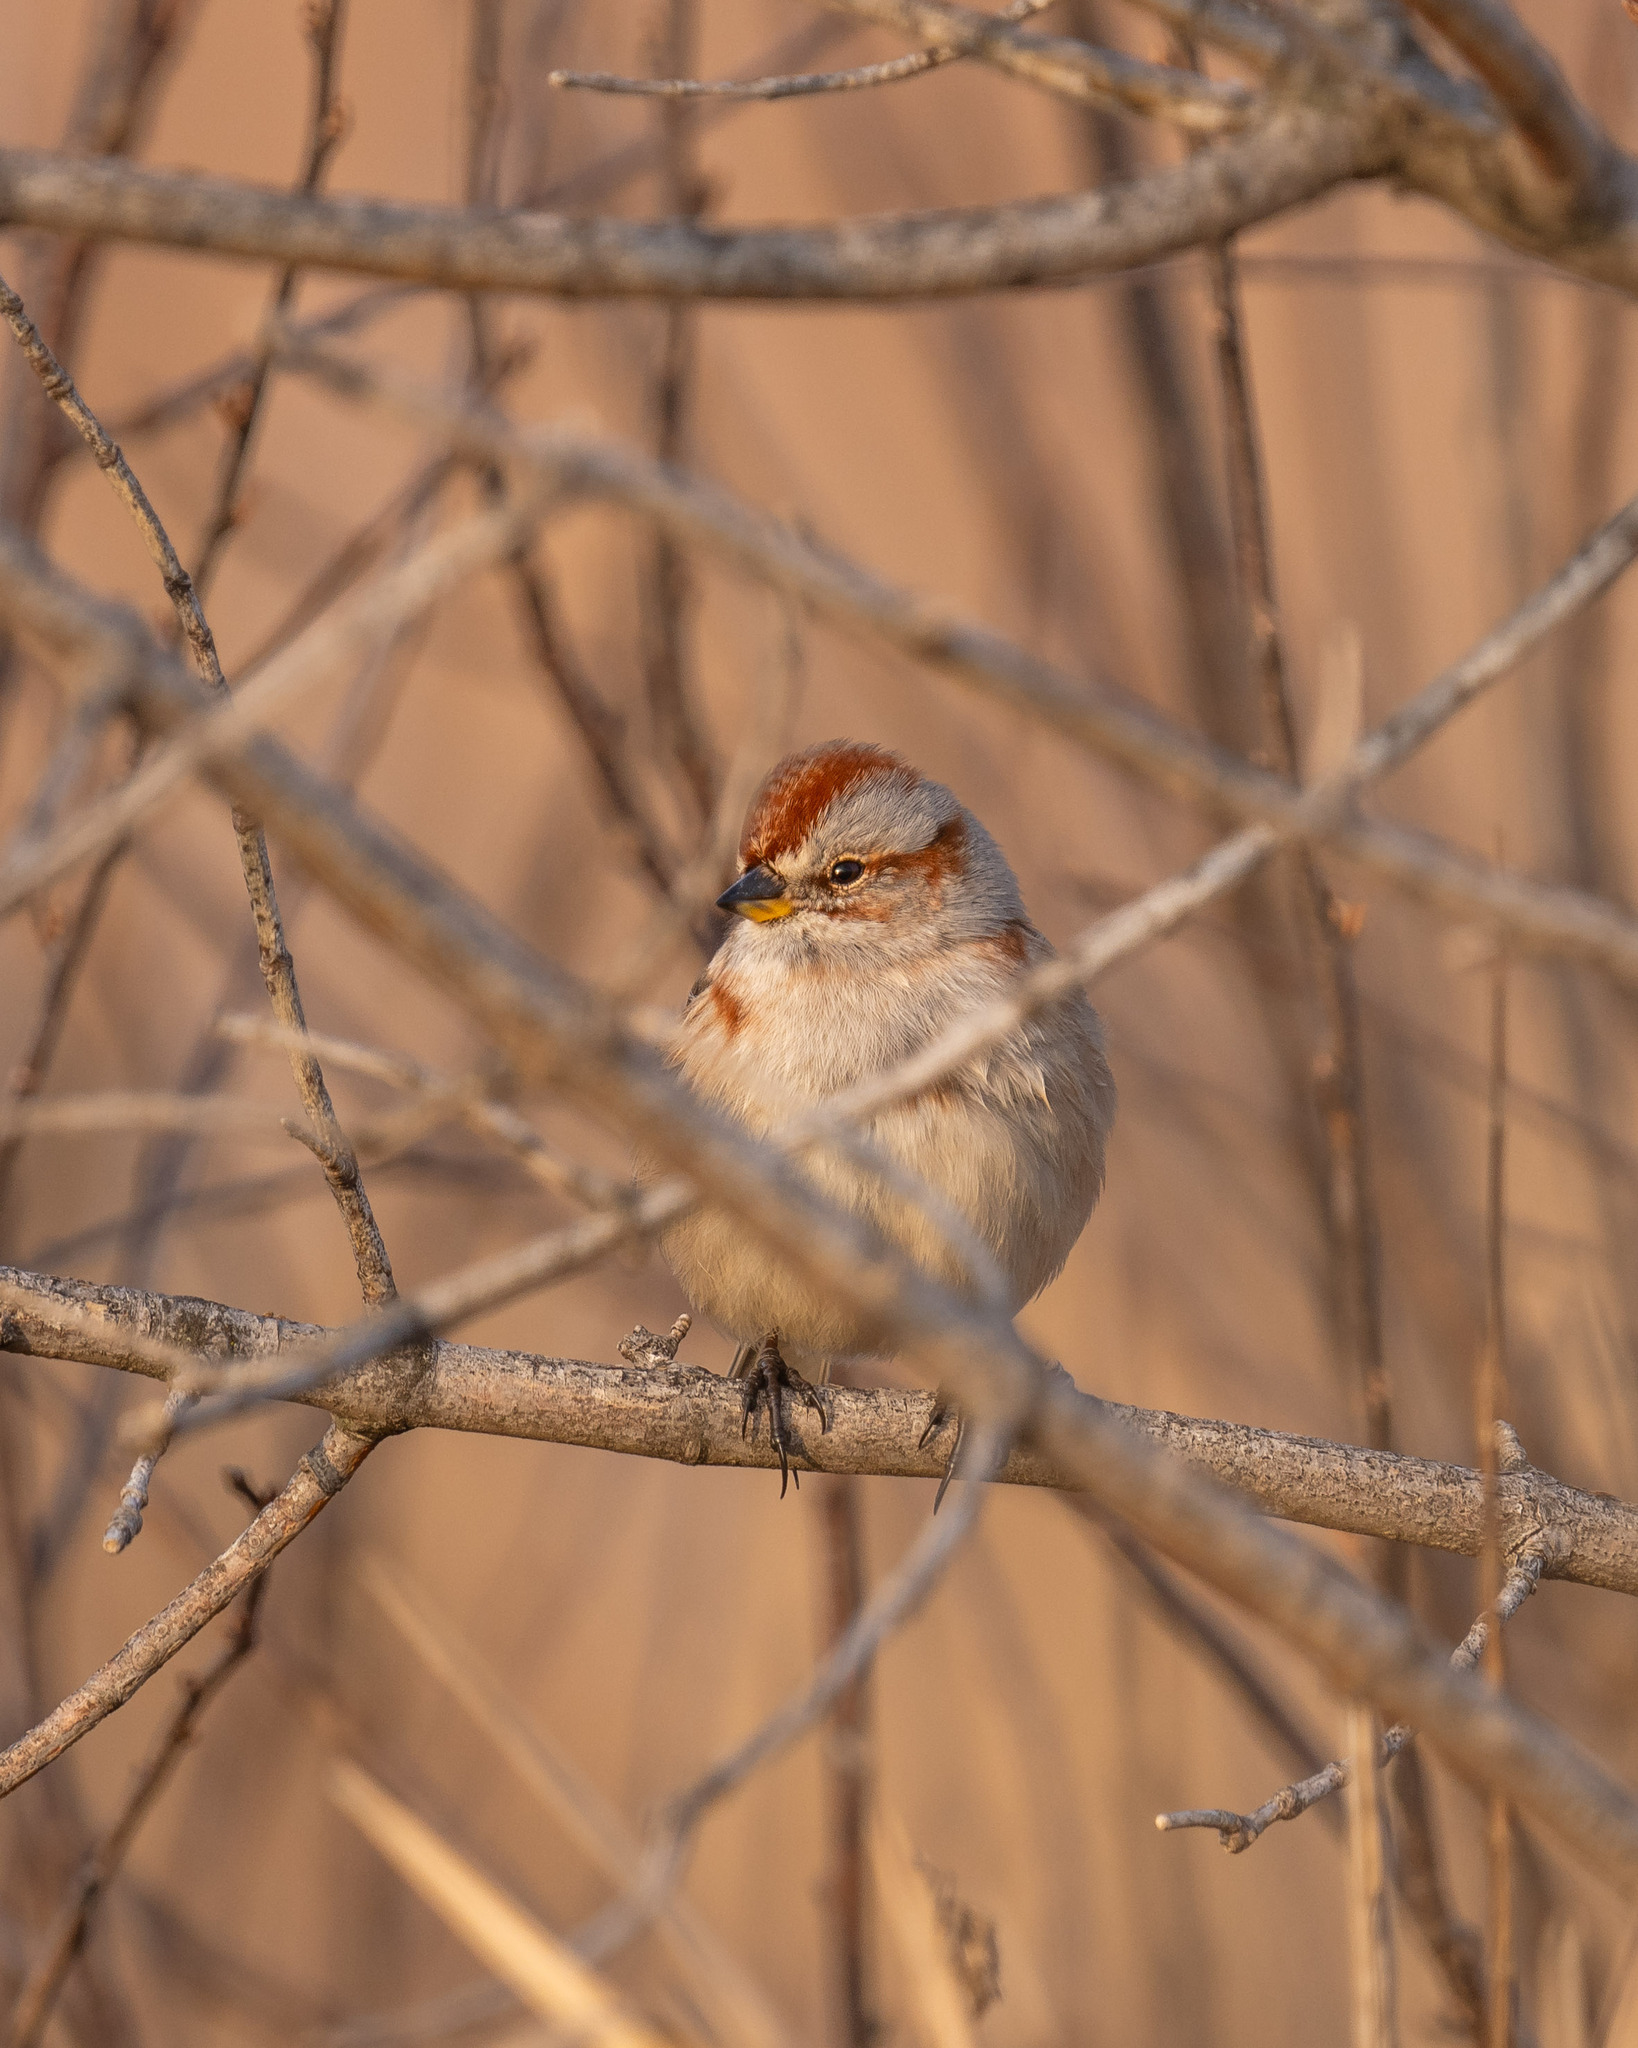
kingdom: Animalia
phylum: Chordata
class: Aves
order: Passeriformes
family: Passerellidae
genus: Spizelloides
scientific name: Spizelloides arborea
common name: American tree sparrow
